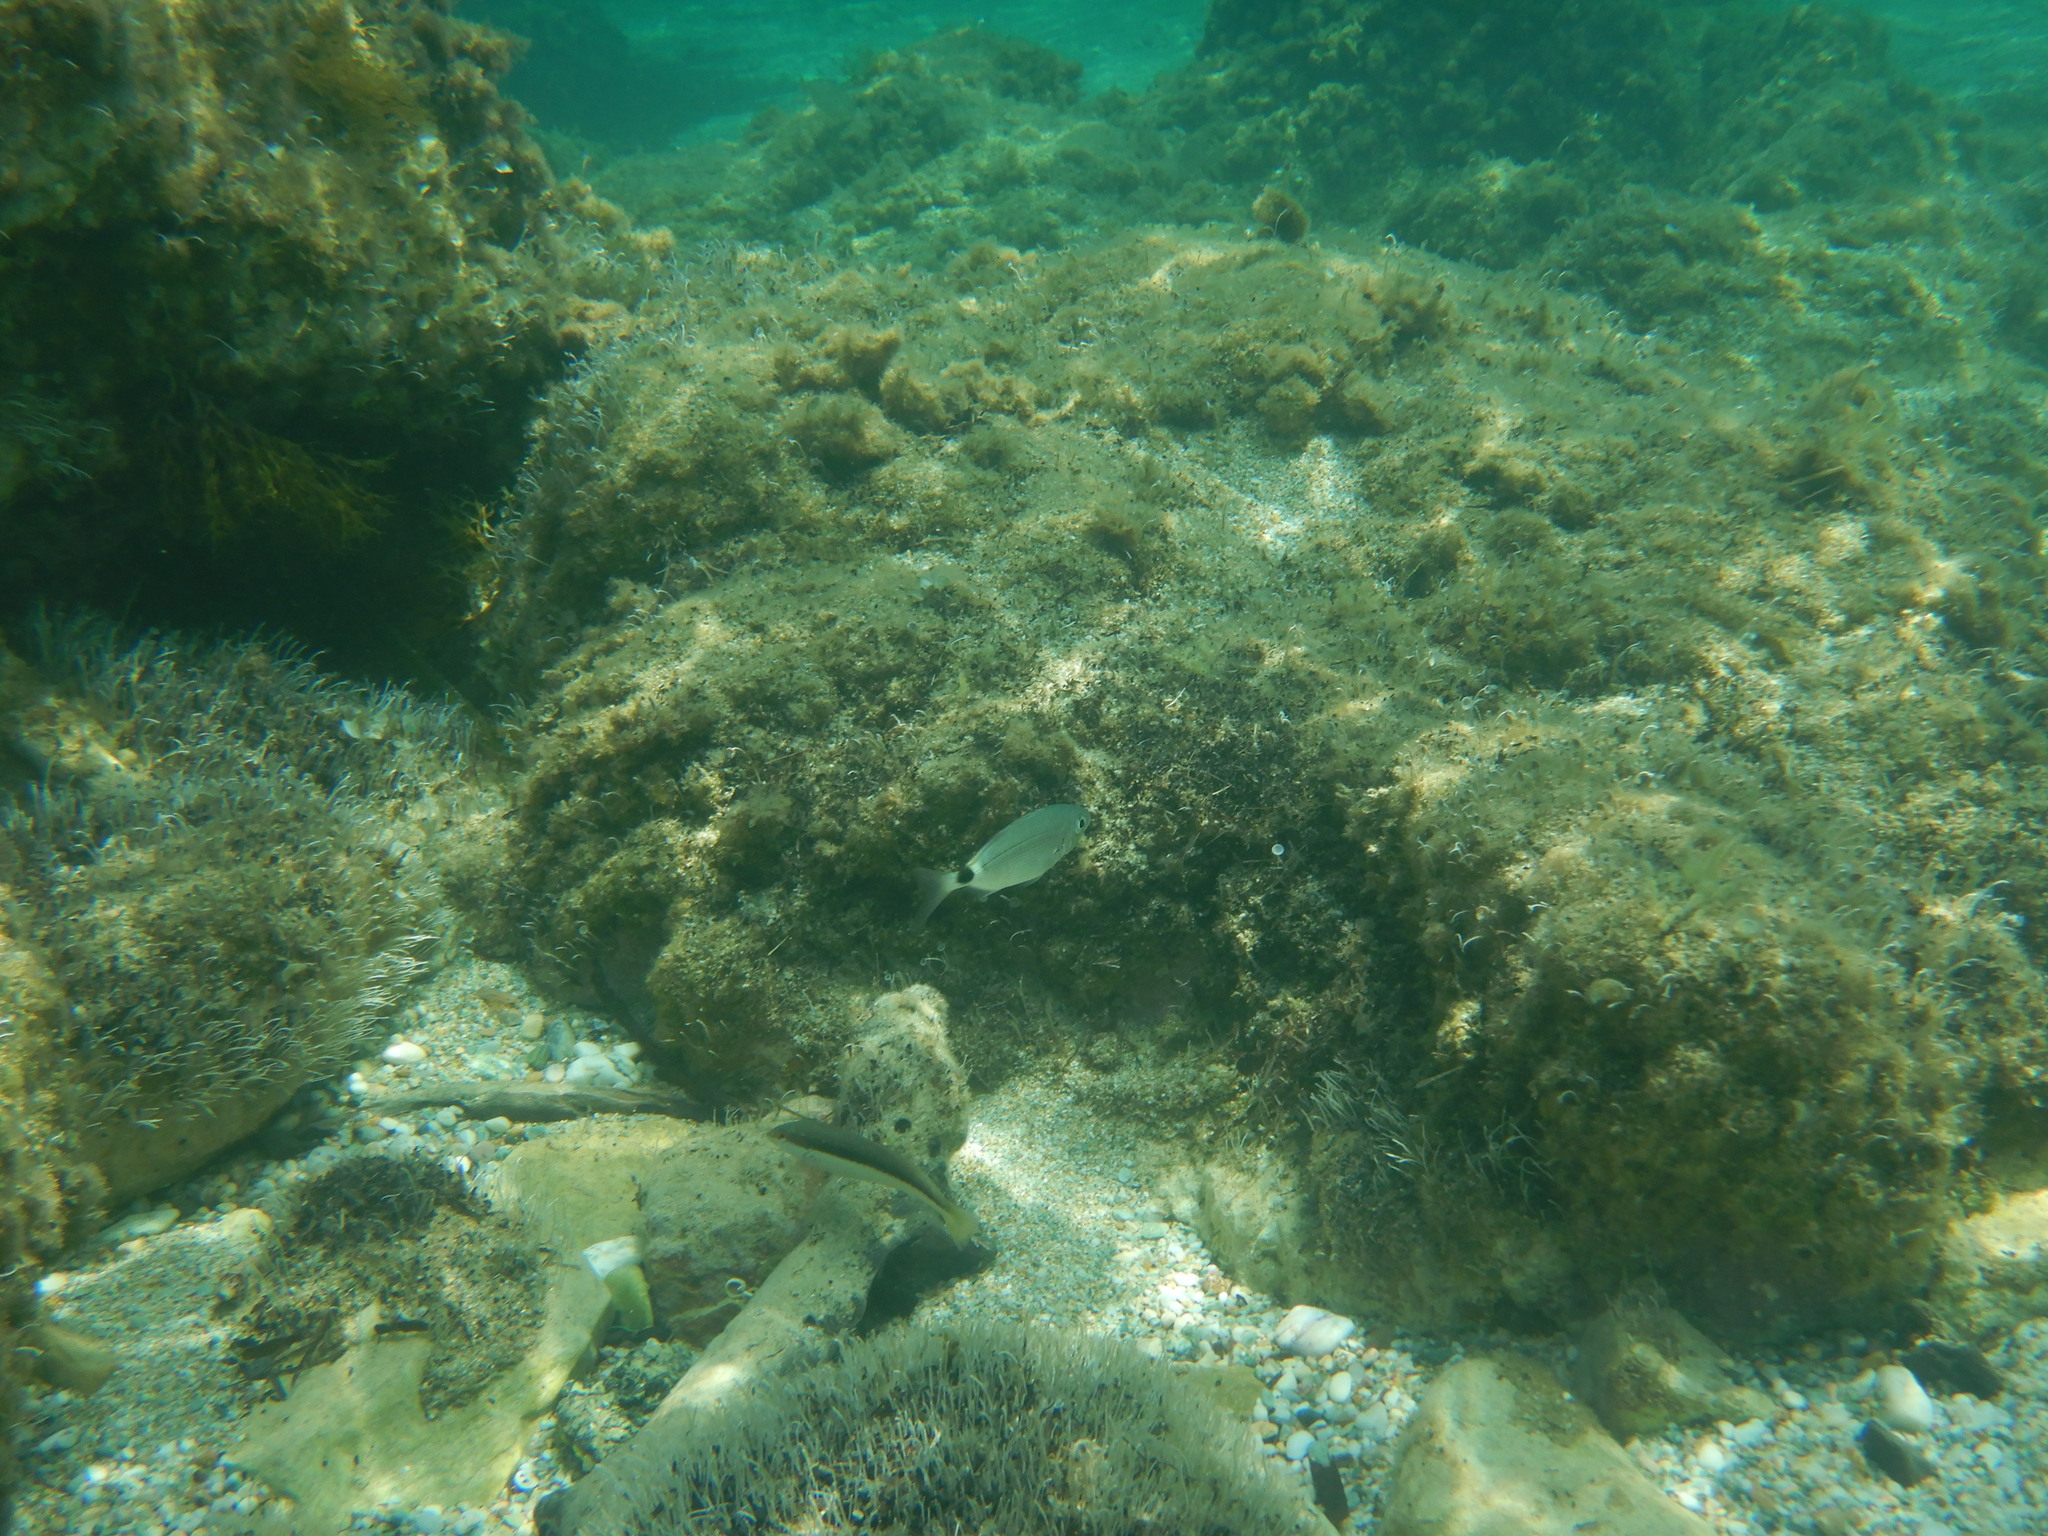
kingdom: Animalia
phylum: Chordata
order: Perciformes
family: Sparidae
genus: Oblada
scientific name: Oblada melanura
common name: Saddled seabream
